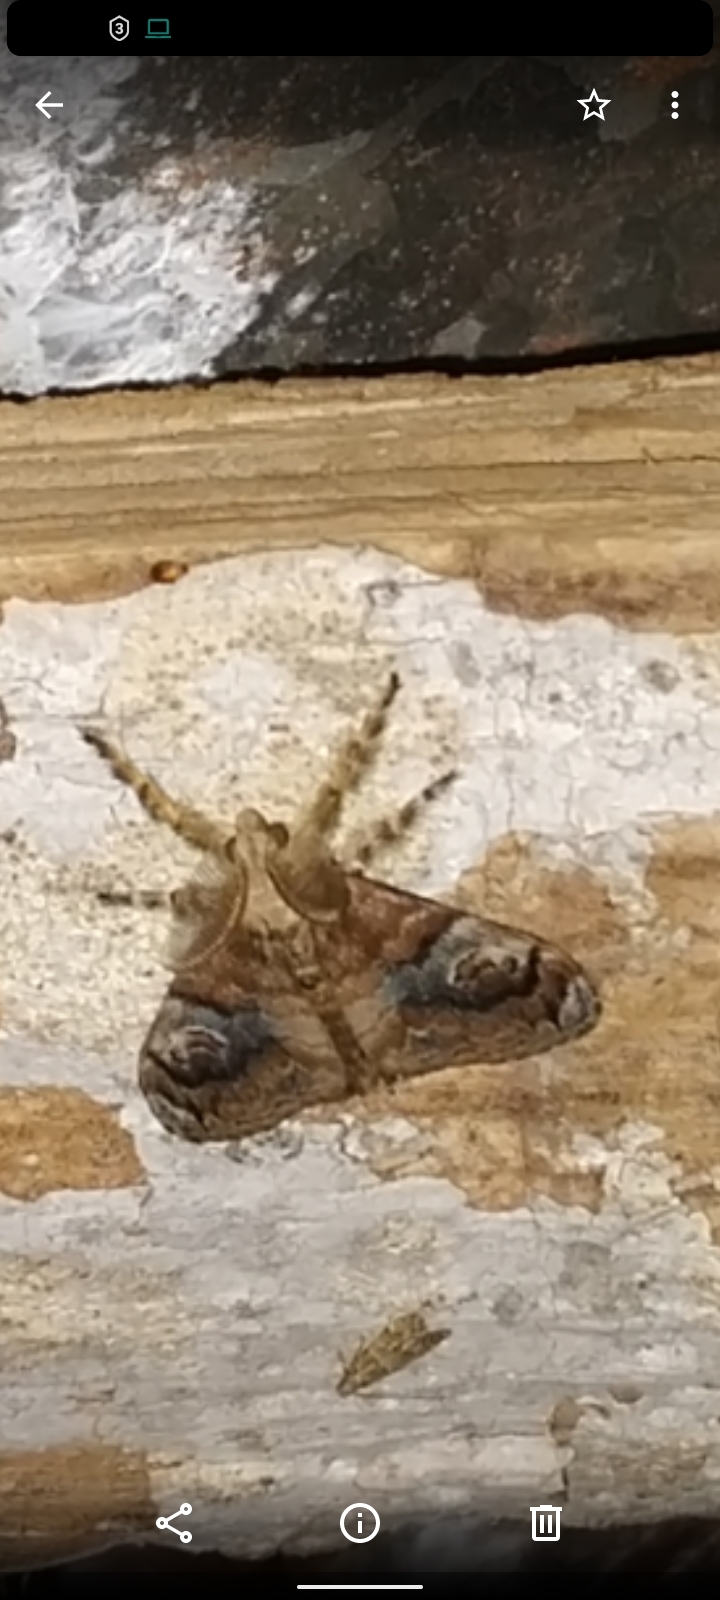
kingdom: Animalia
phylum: Arthropoda
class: Insecta
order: Lepidoptera
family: Erebidae
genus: Orgyia
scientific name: Orgyia postica
